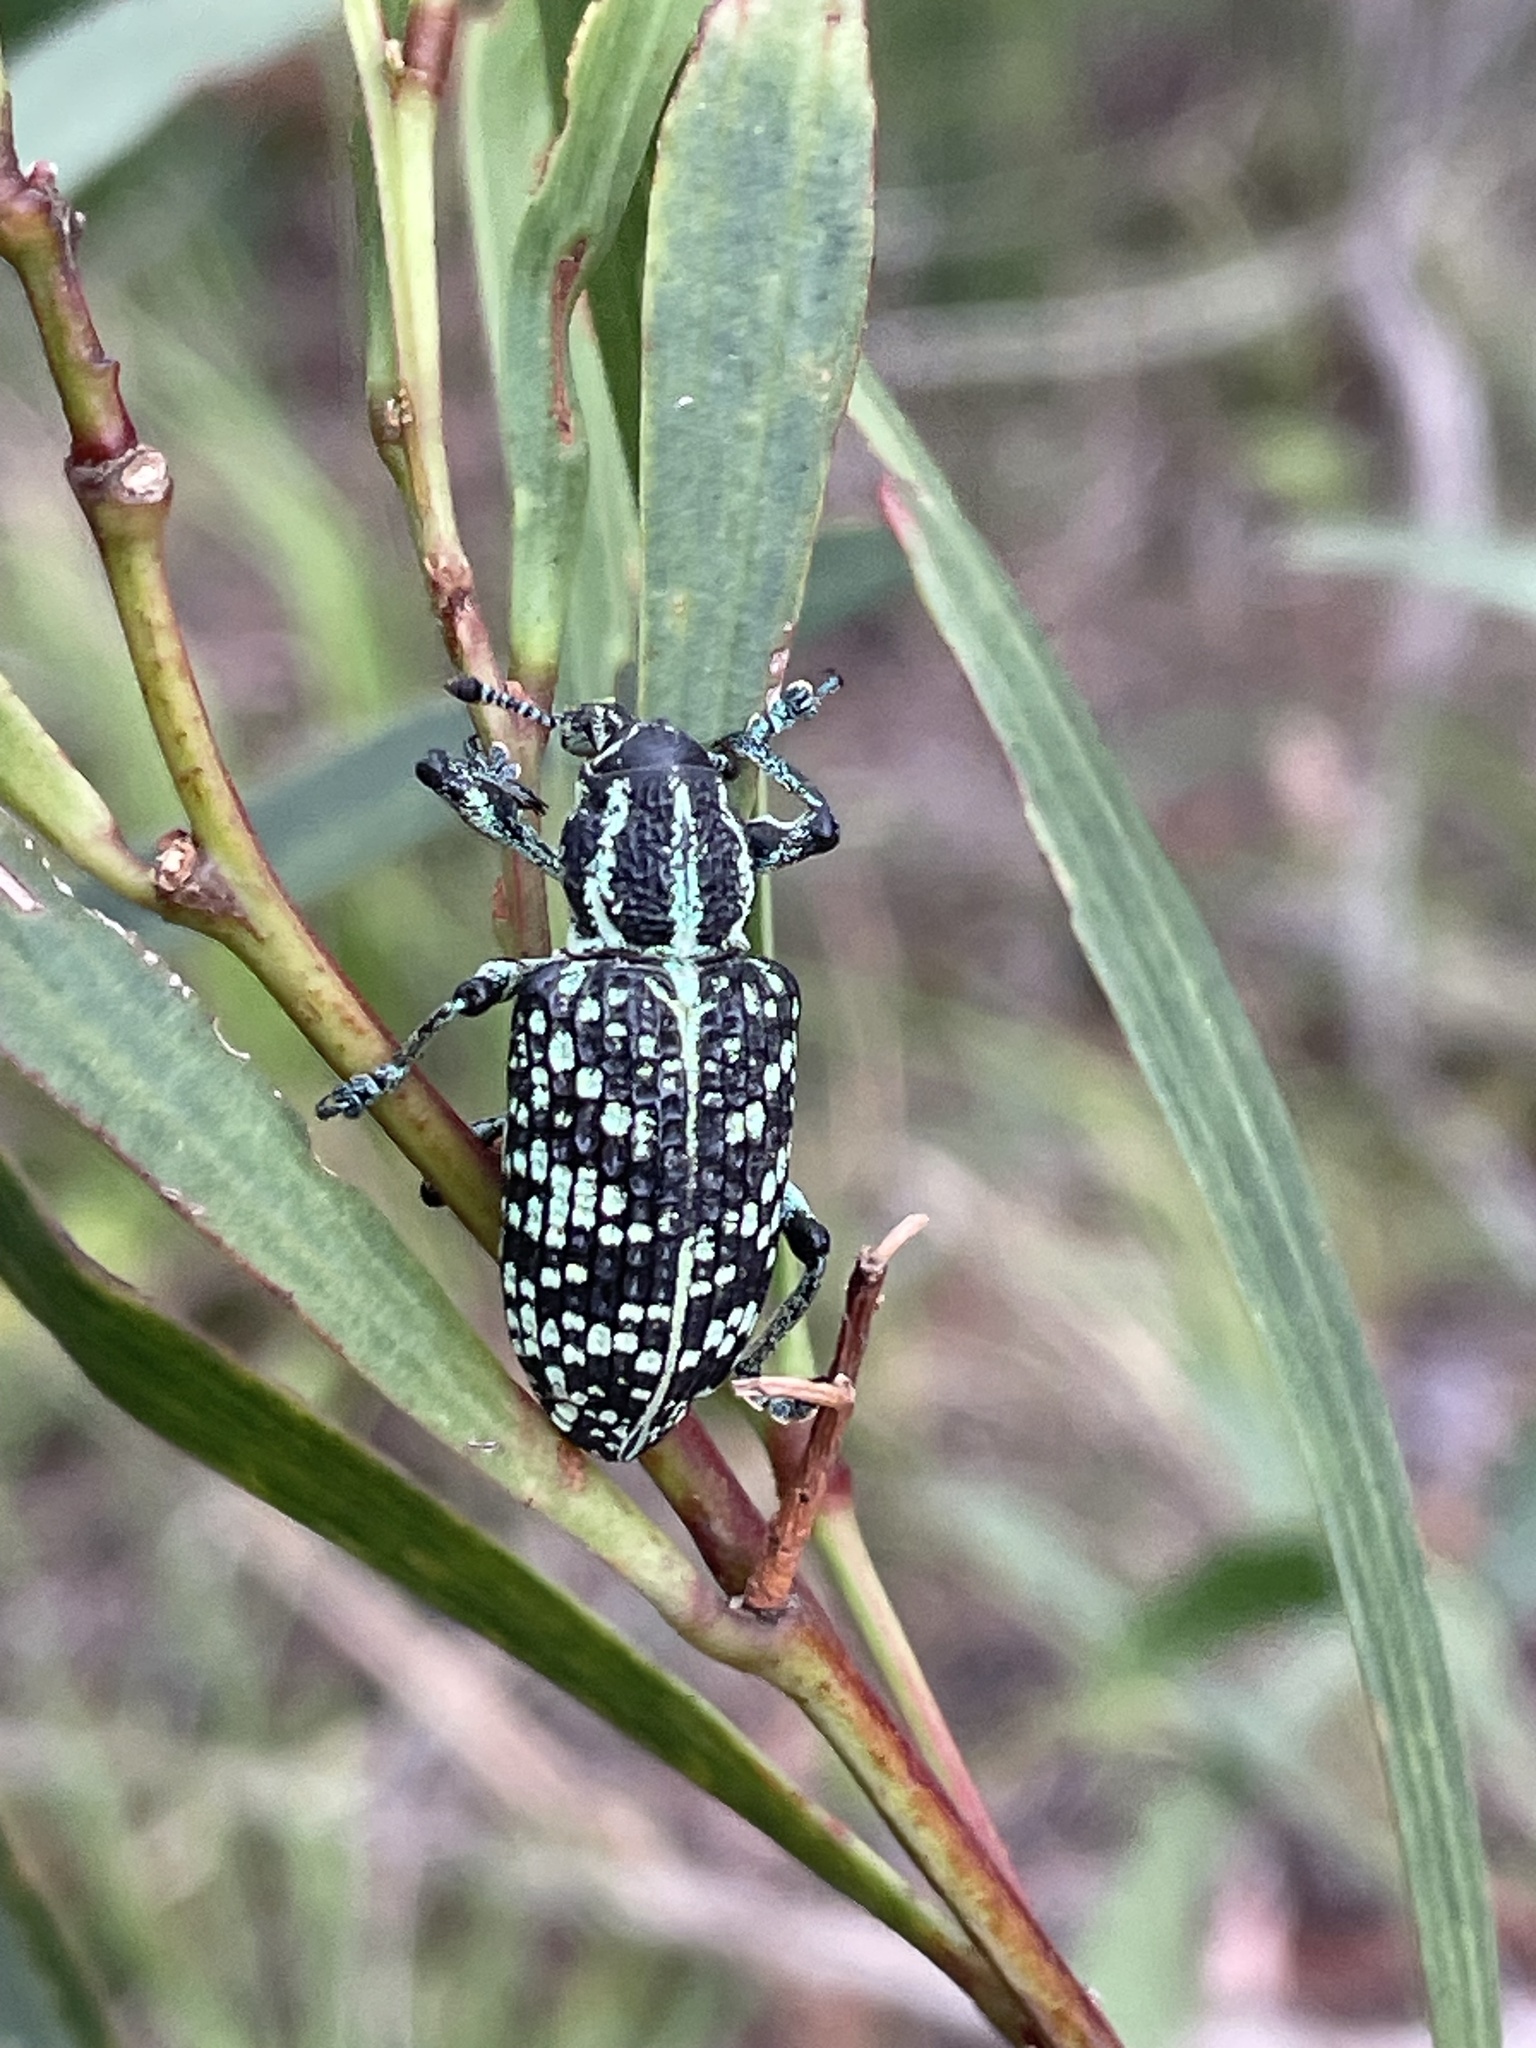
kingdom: Animalia
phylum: Arthropoda
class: Insecta
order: Coleoptera
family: Curculionidae
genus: Chrysolopus
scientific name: Chrysolopus spectabilis
